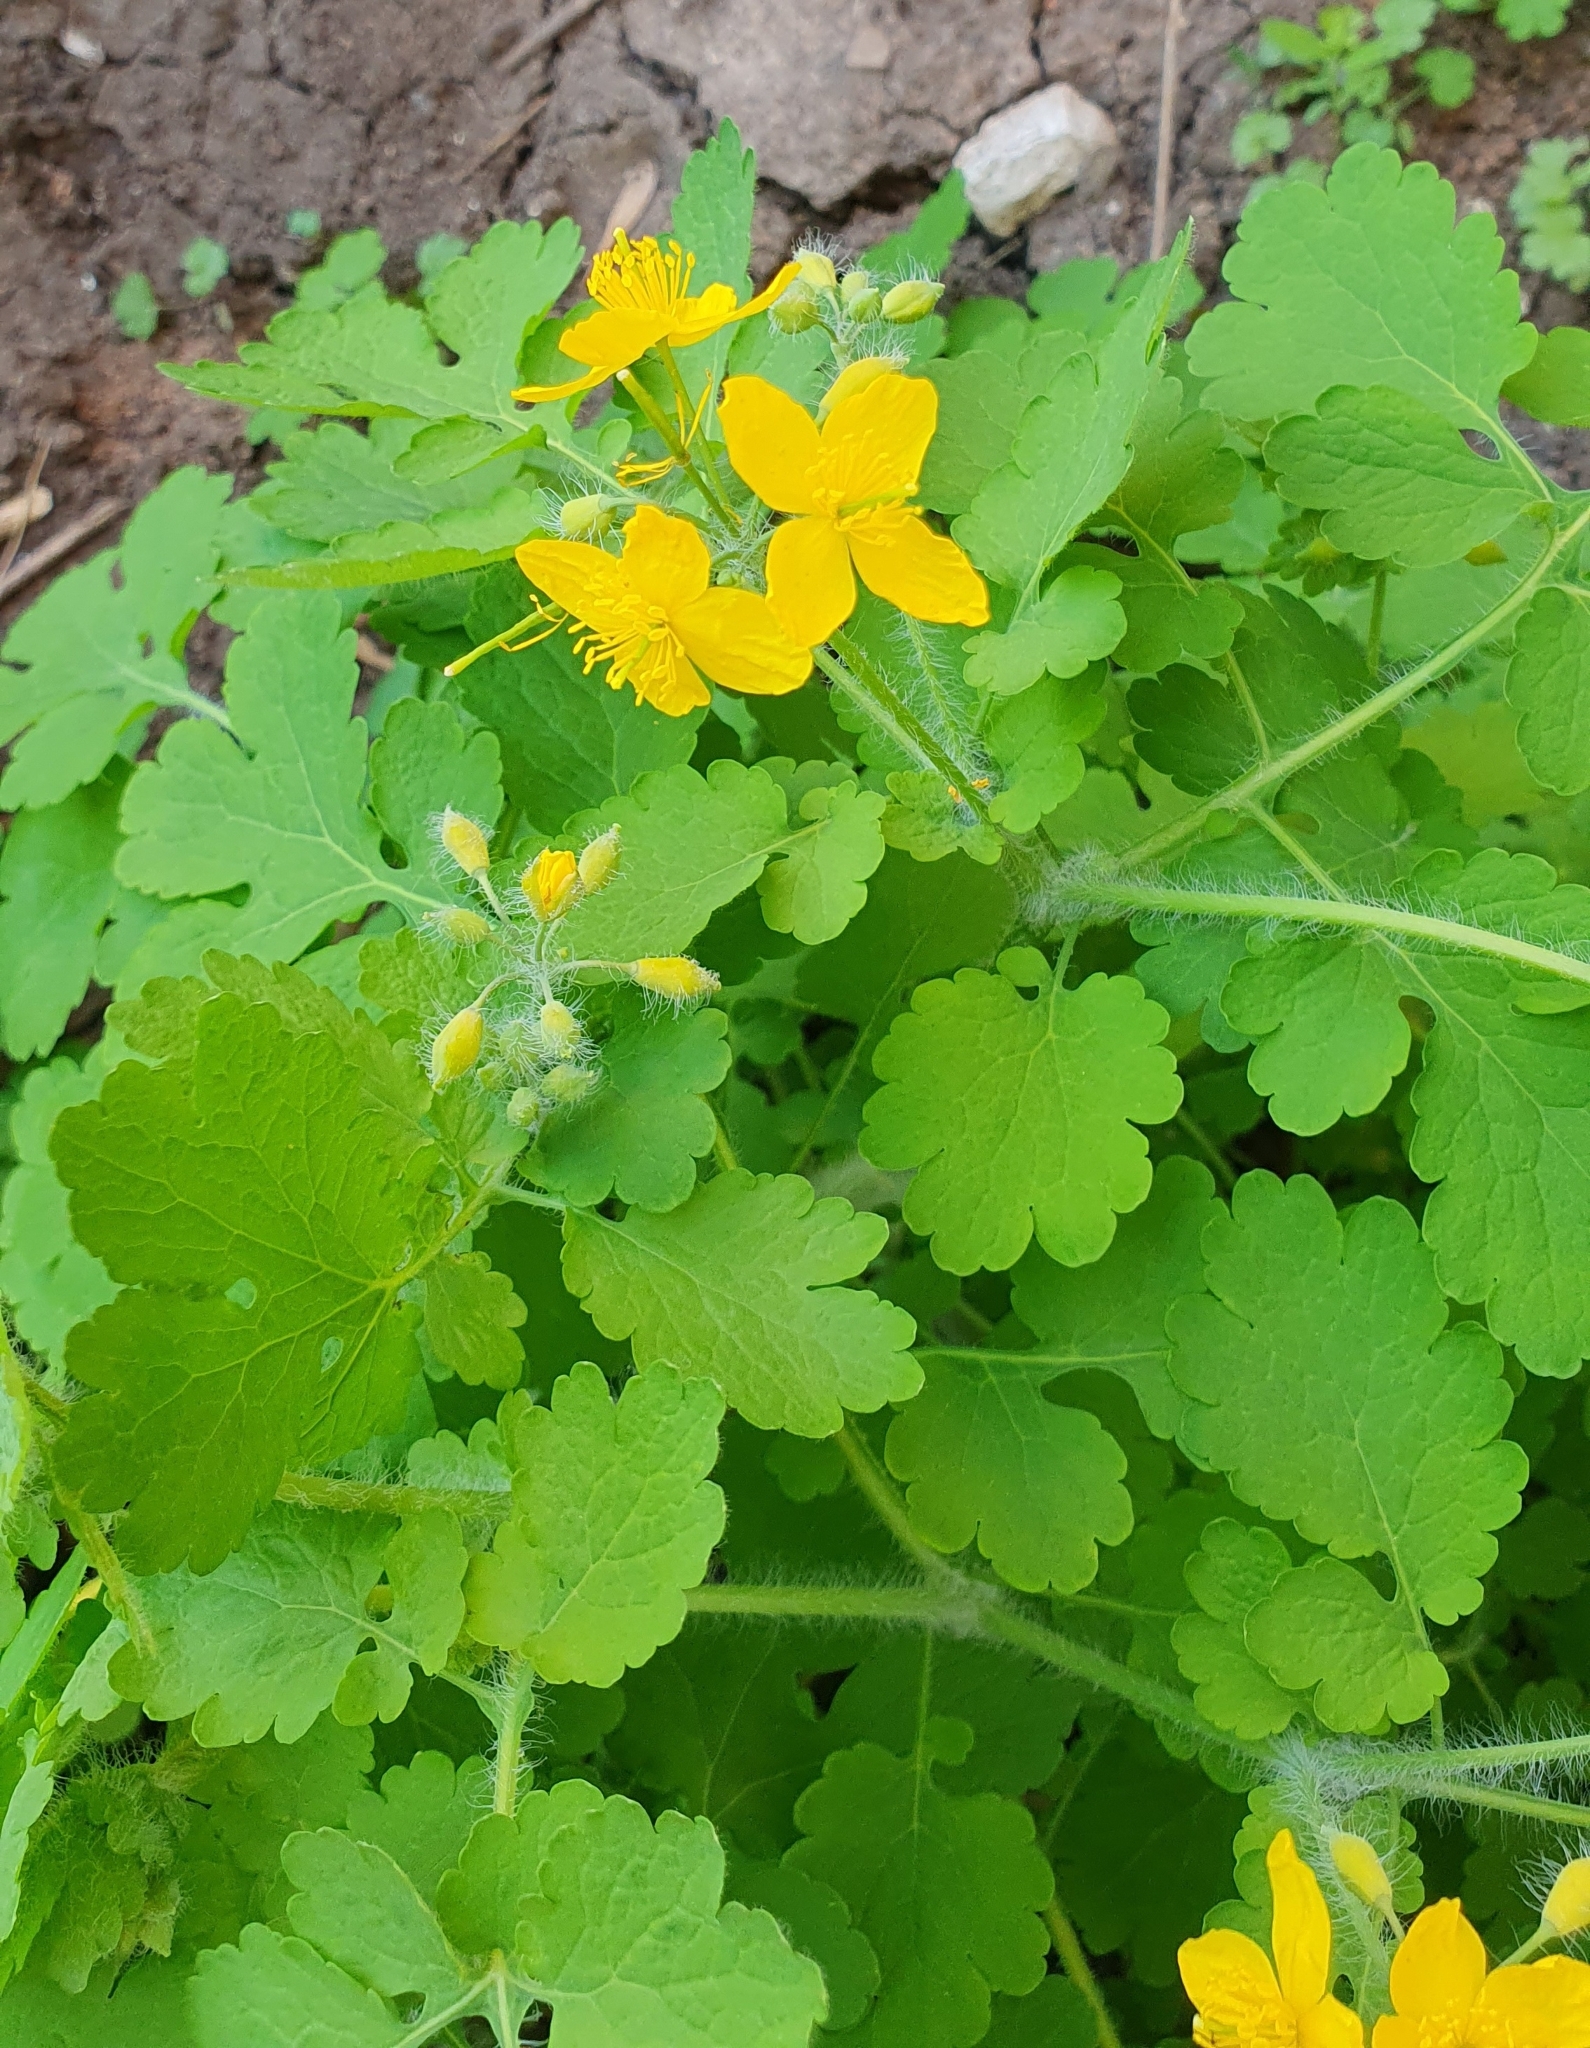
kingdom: Plantae
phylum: Tracheophyta
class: Magnoliopsida
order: Ranunculales
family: Papaveraceae
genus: Chelidonium
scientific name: Chelidonium majus
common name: Greater celandine
